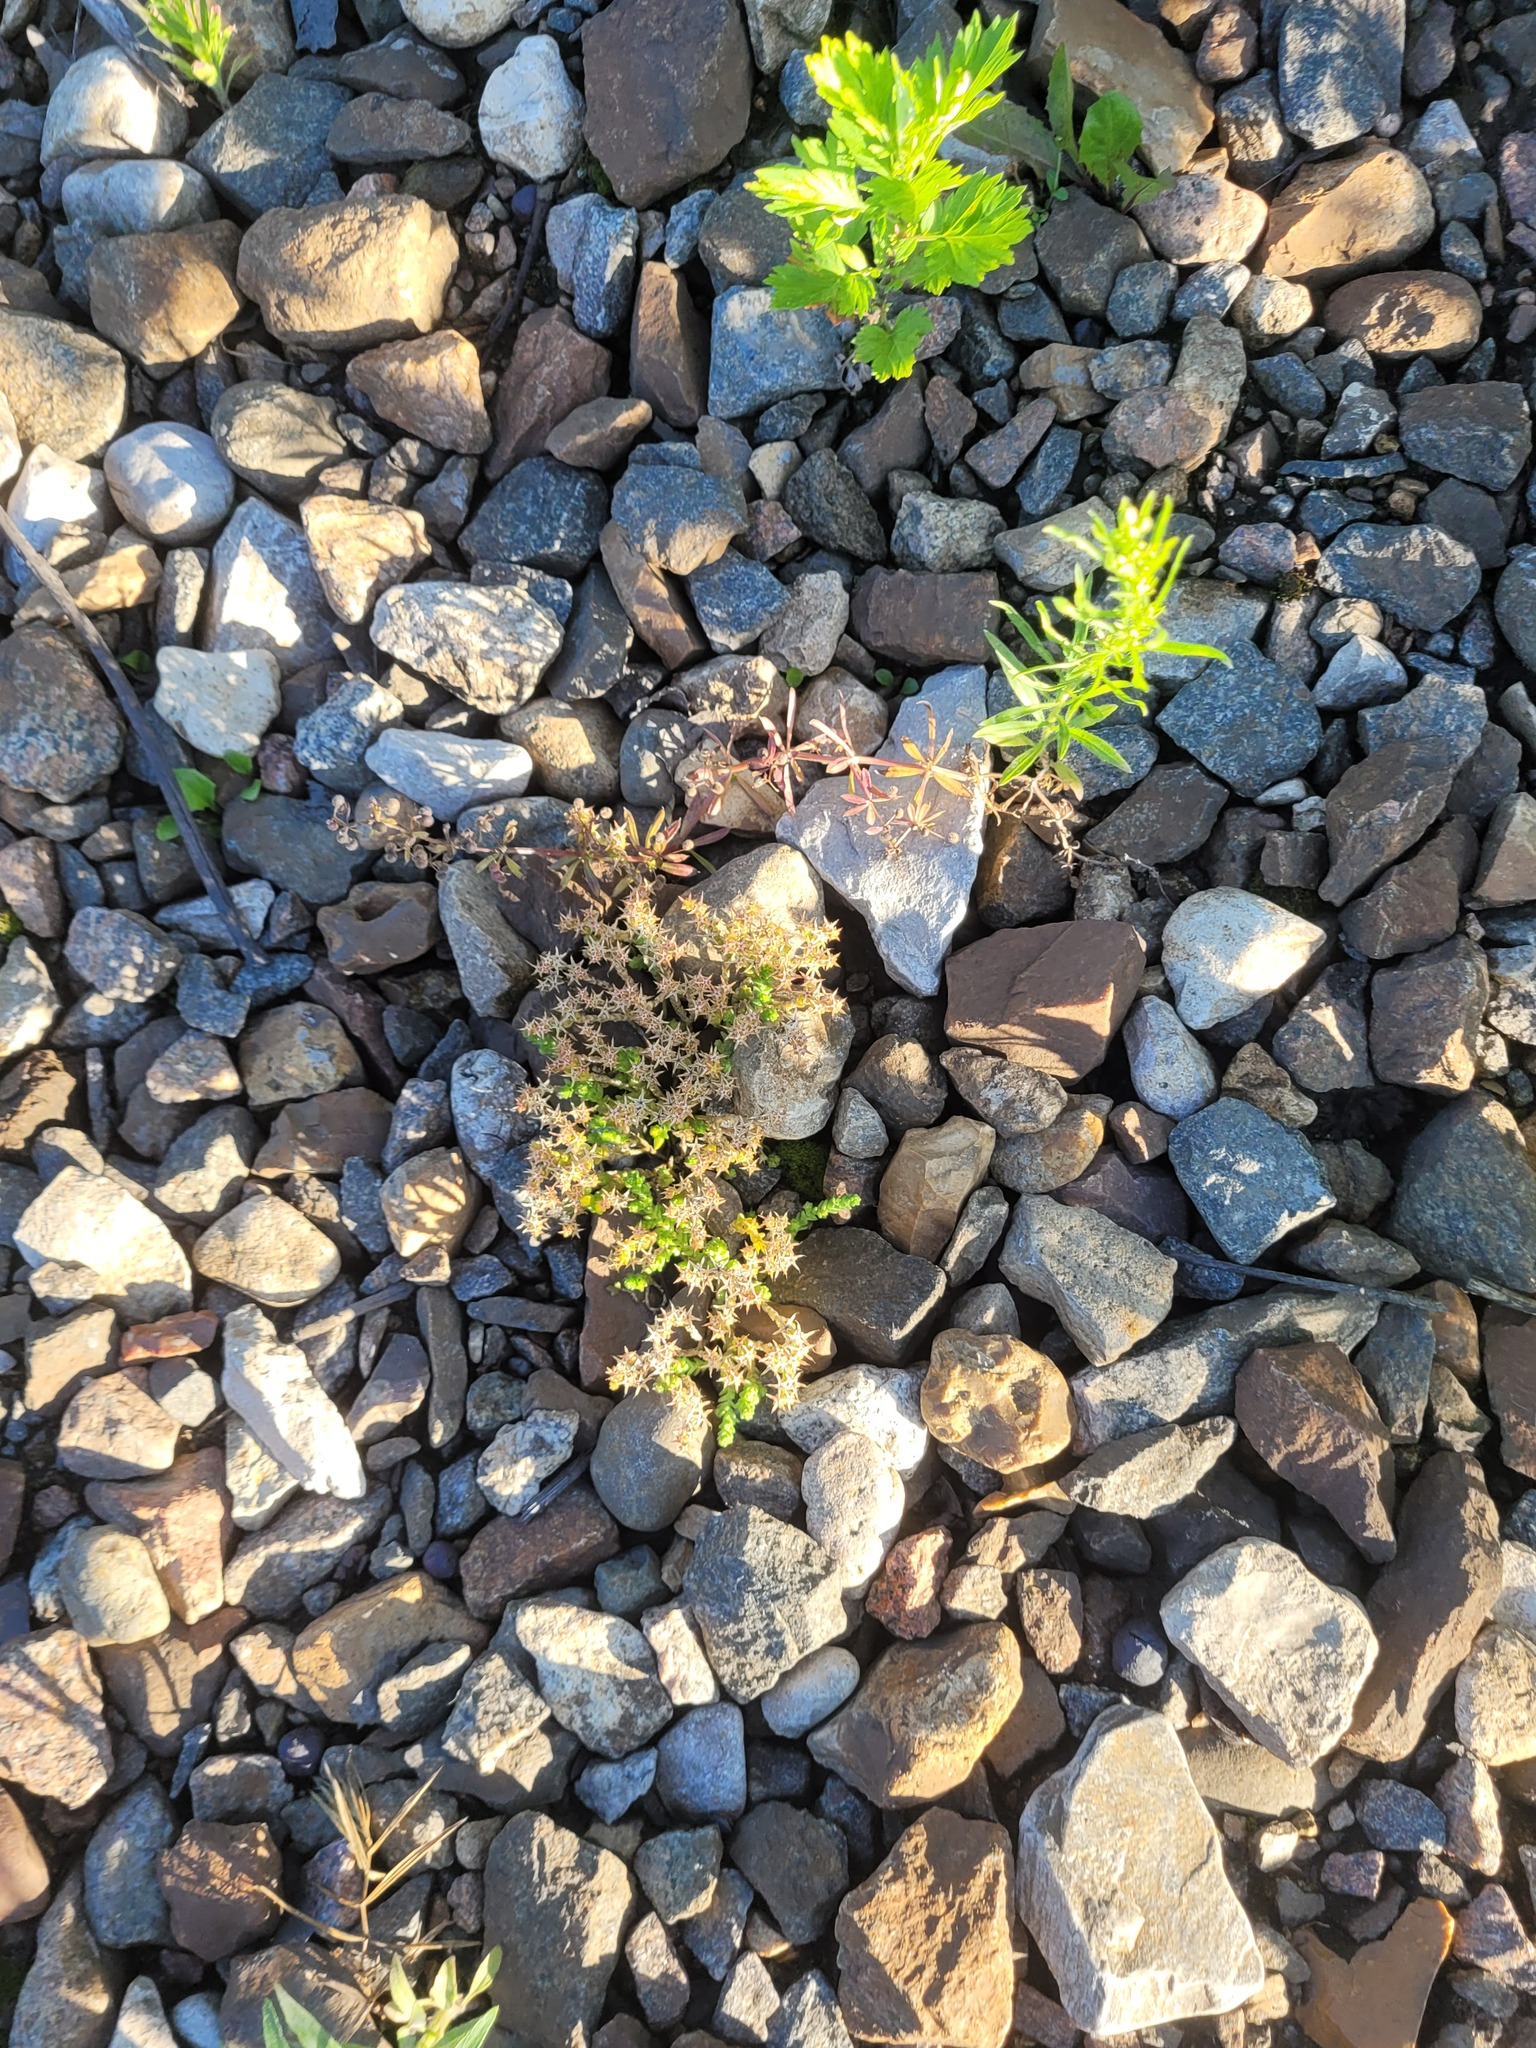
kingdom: Plantae
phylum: Tracheophyta
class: Magnoliopsida
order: Saxifragales
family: Crassulaceae
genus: Sedum
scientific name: Sedum acre
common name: Biting stonecrop
